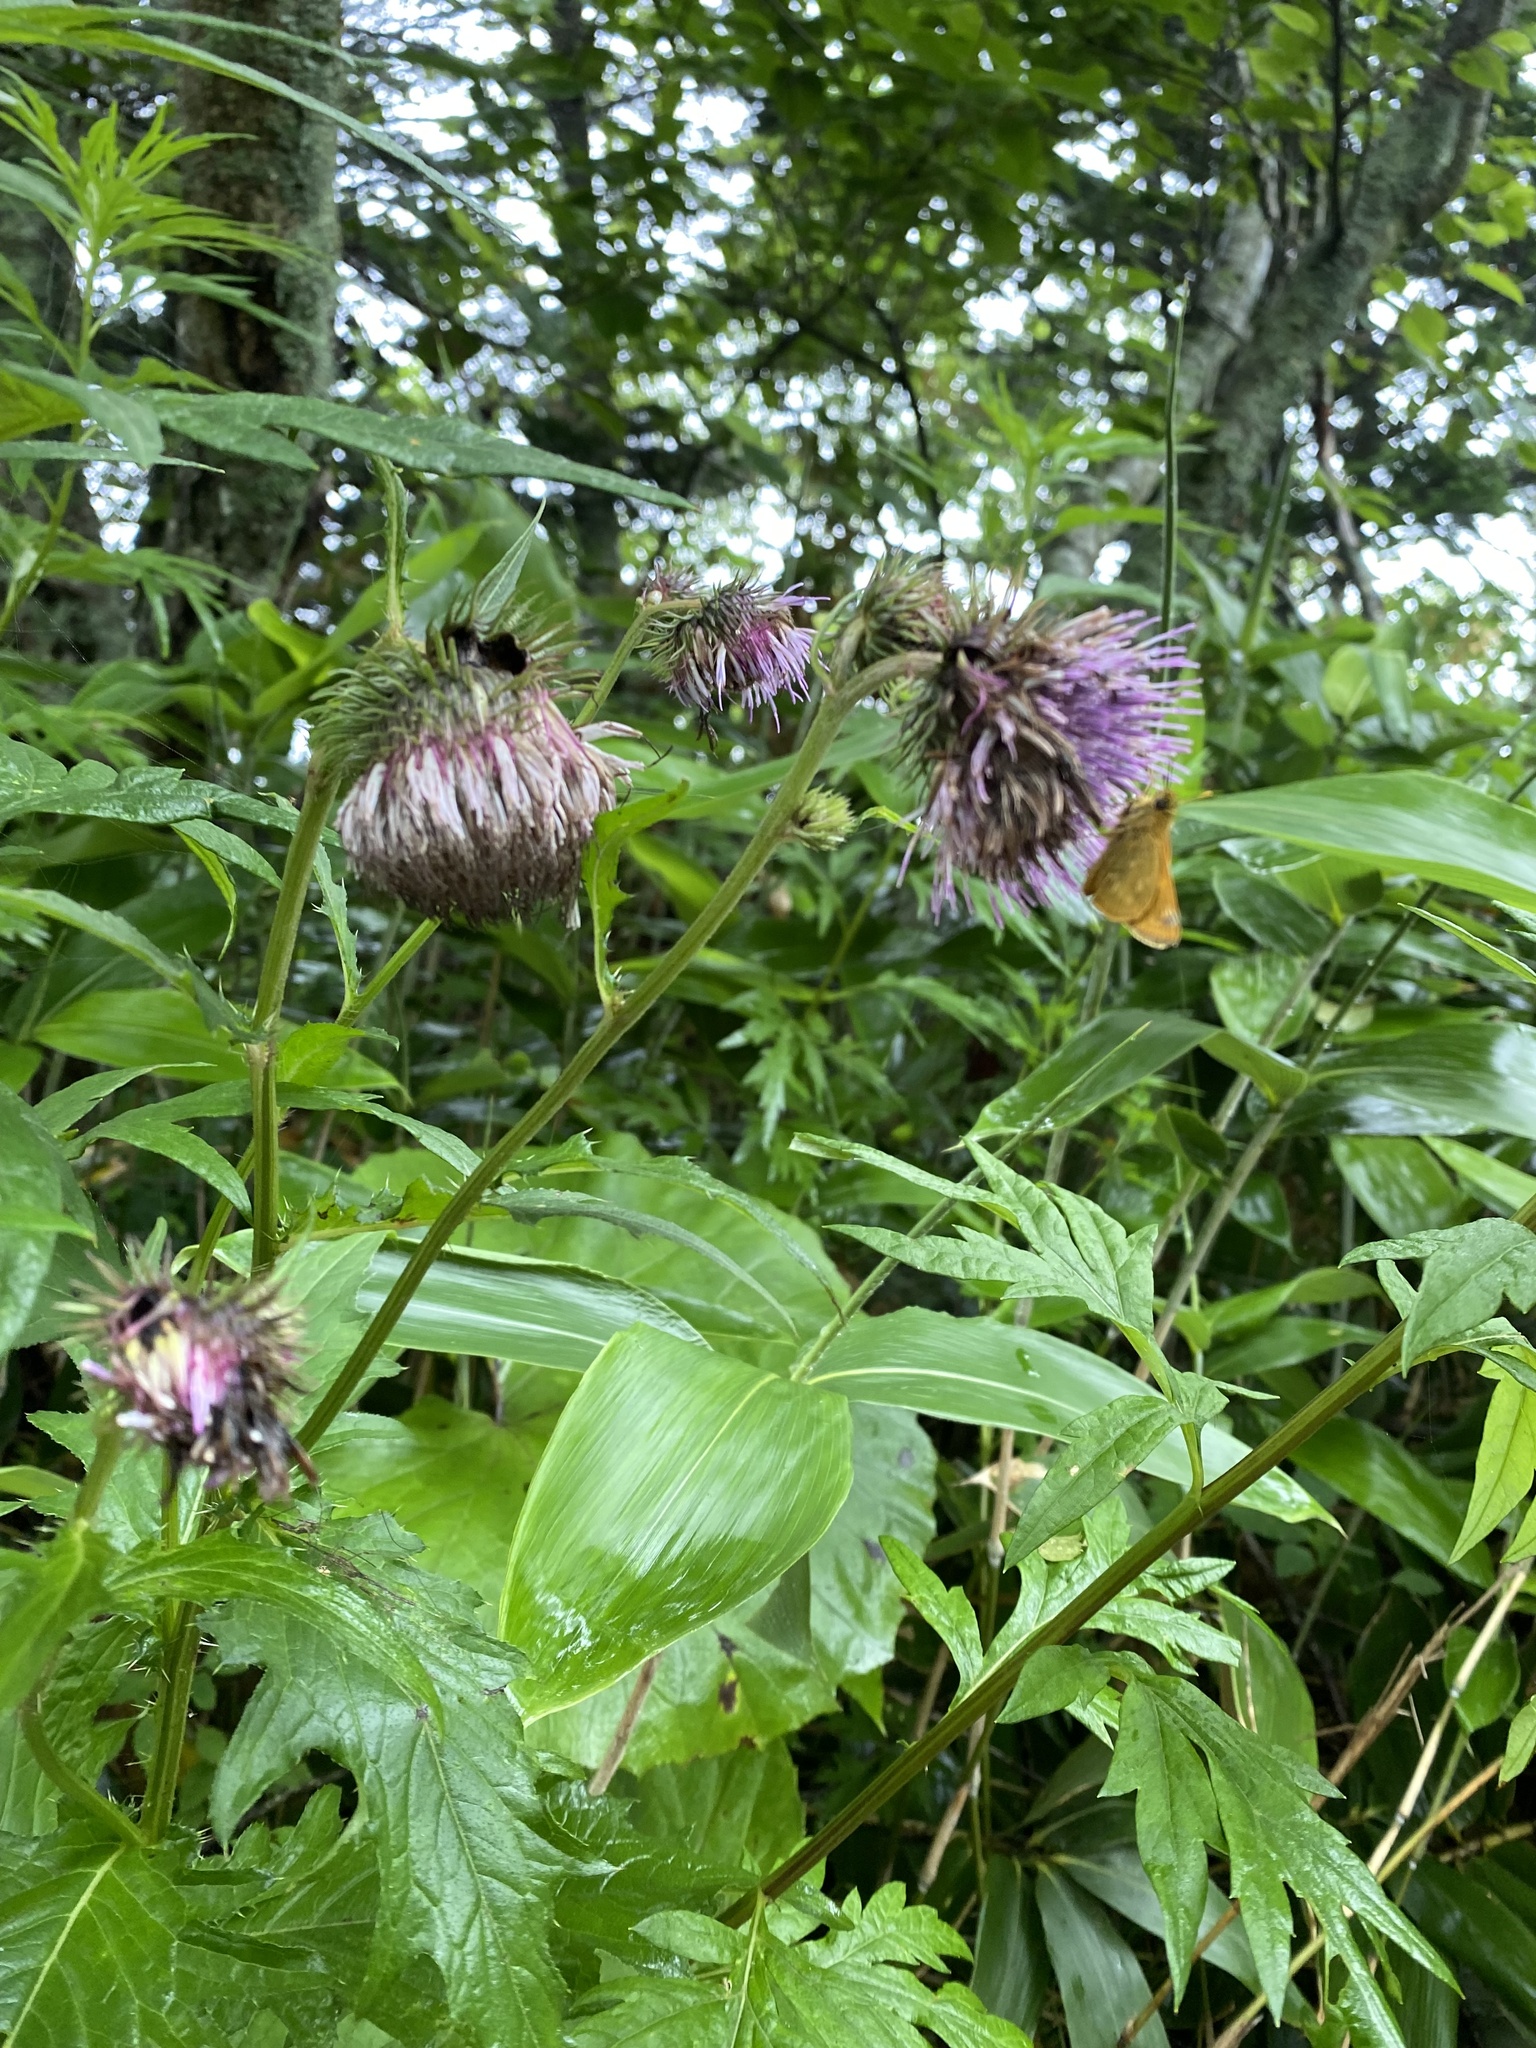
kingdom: Plantae
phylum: Tracheophyta
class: Magnoliopsida
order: Asterales
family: Asteraceae
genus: Cirsium
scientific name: Cirsium kamtschaticum
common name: Kamchatka thistle
